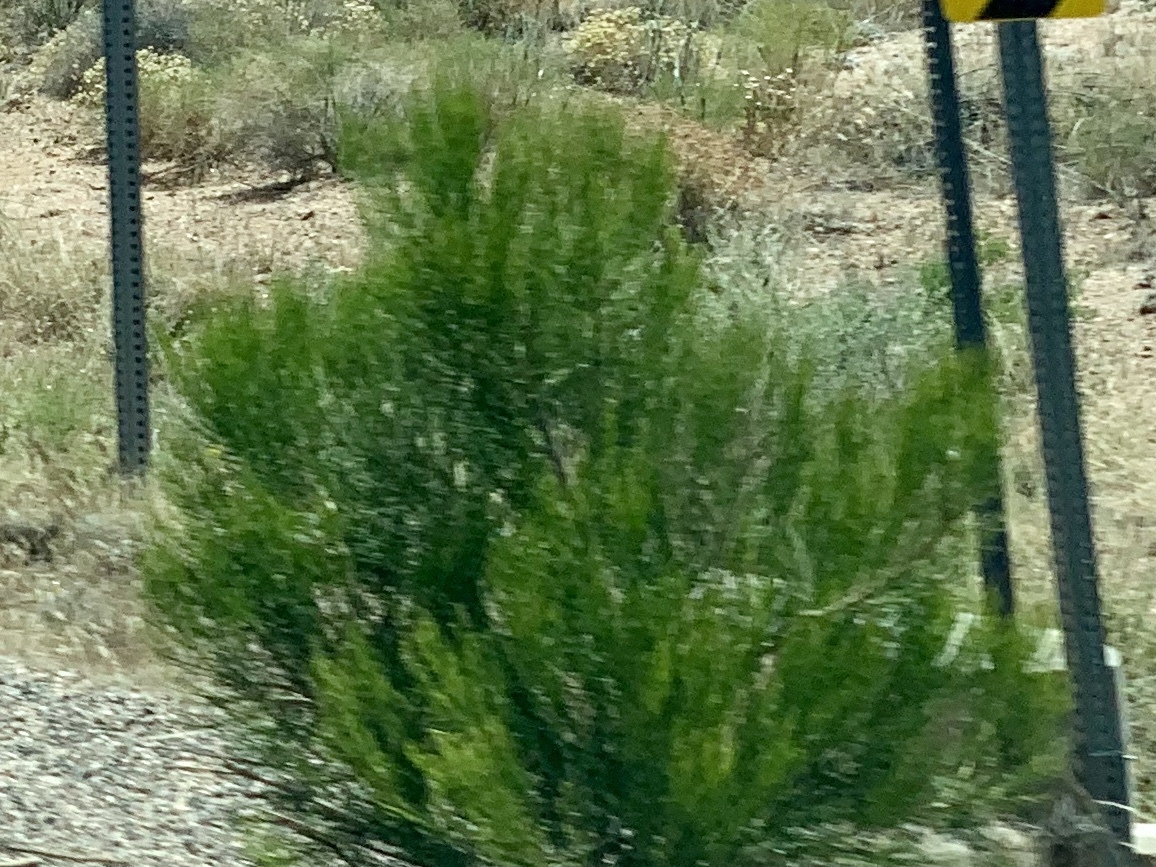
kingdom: Plantae
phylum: Tracheophyta
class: Magnoliopsida
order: Asterales
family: Asteraceae
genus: Baccharis
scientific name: Baccharis sarothroides
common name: Desert-broom
